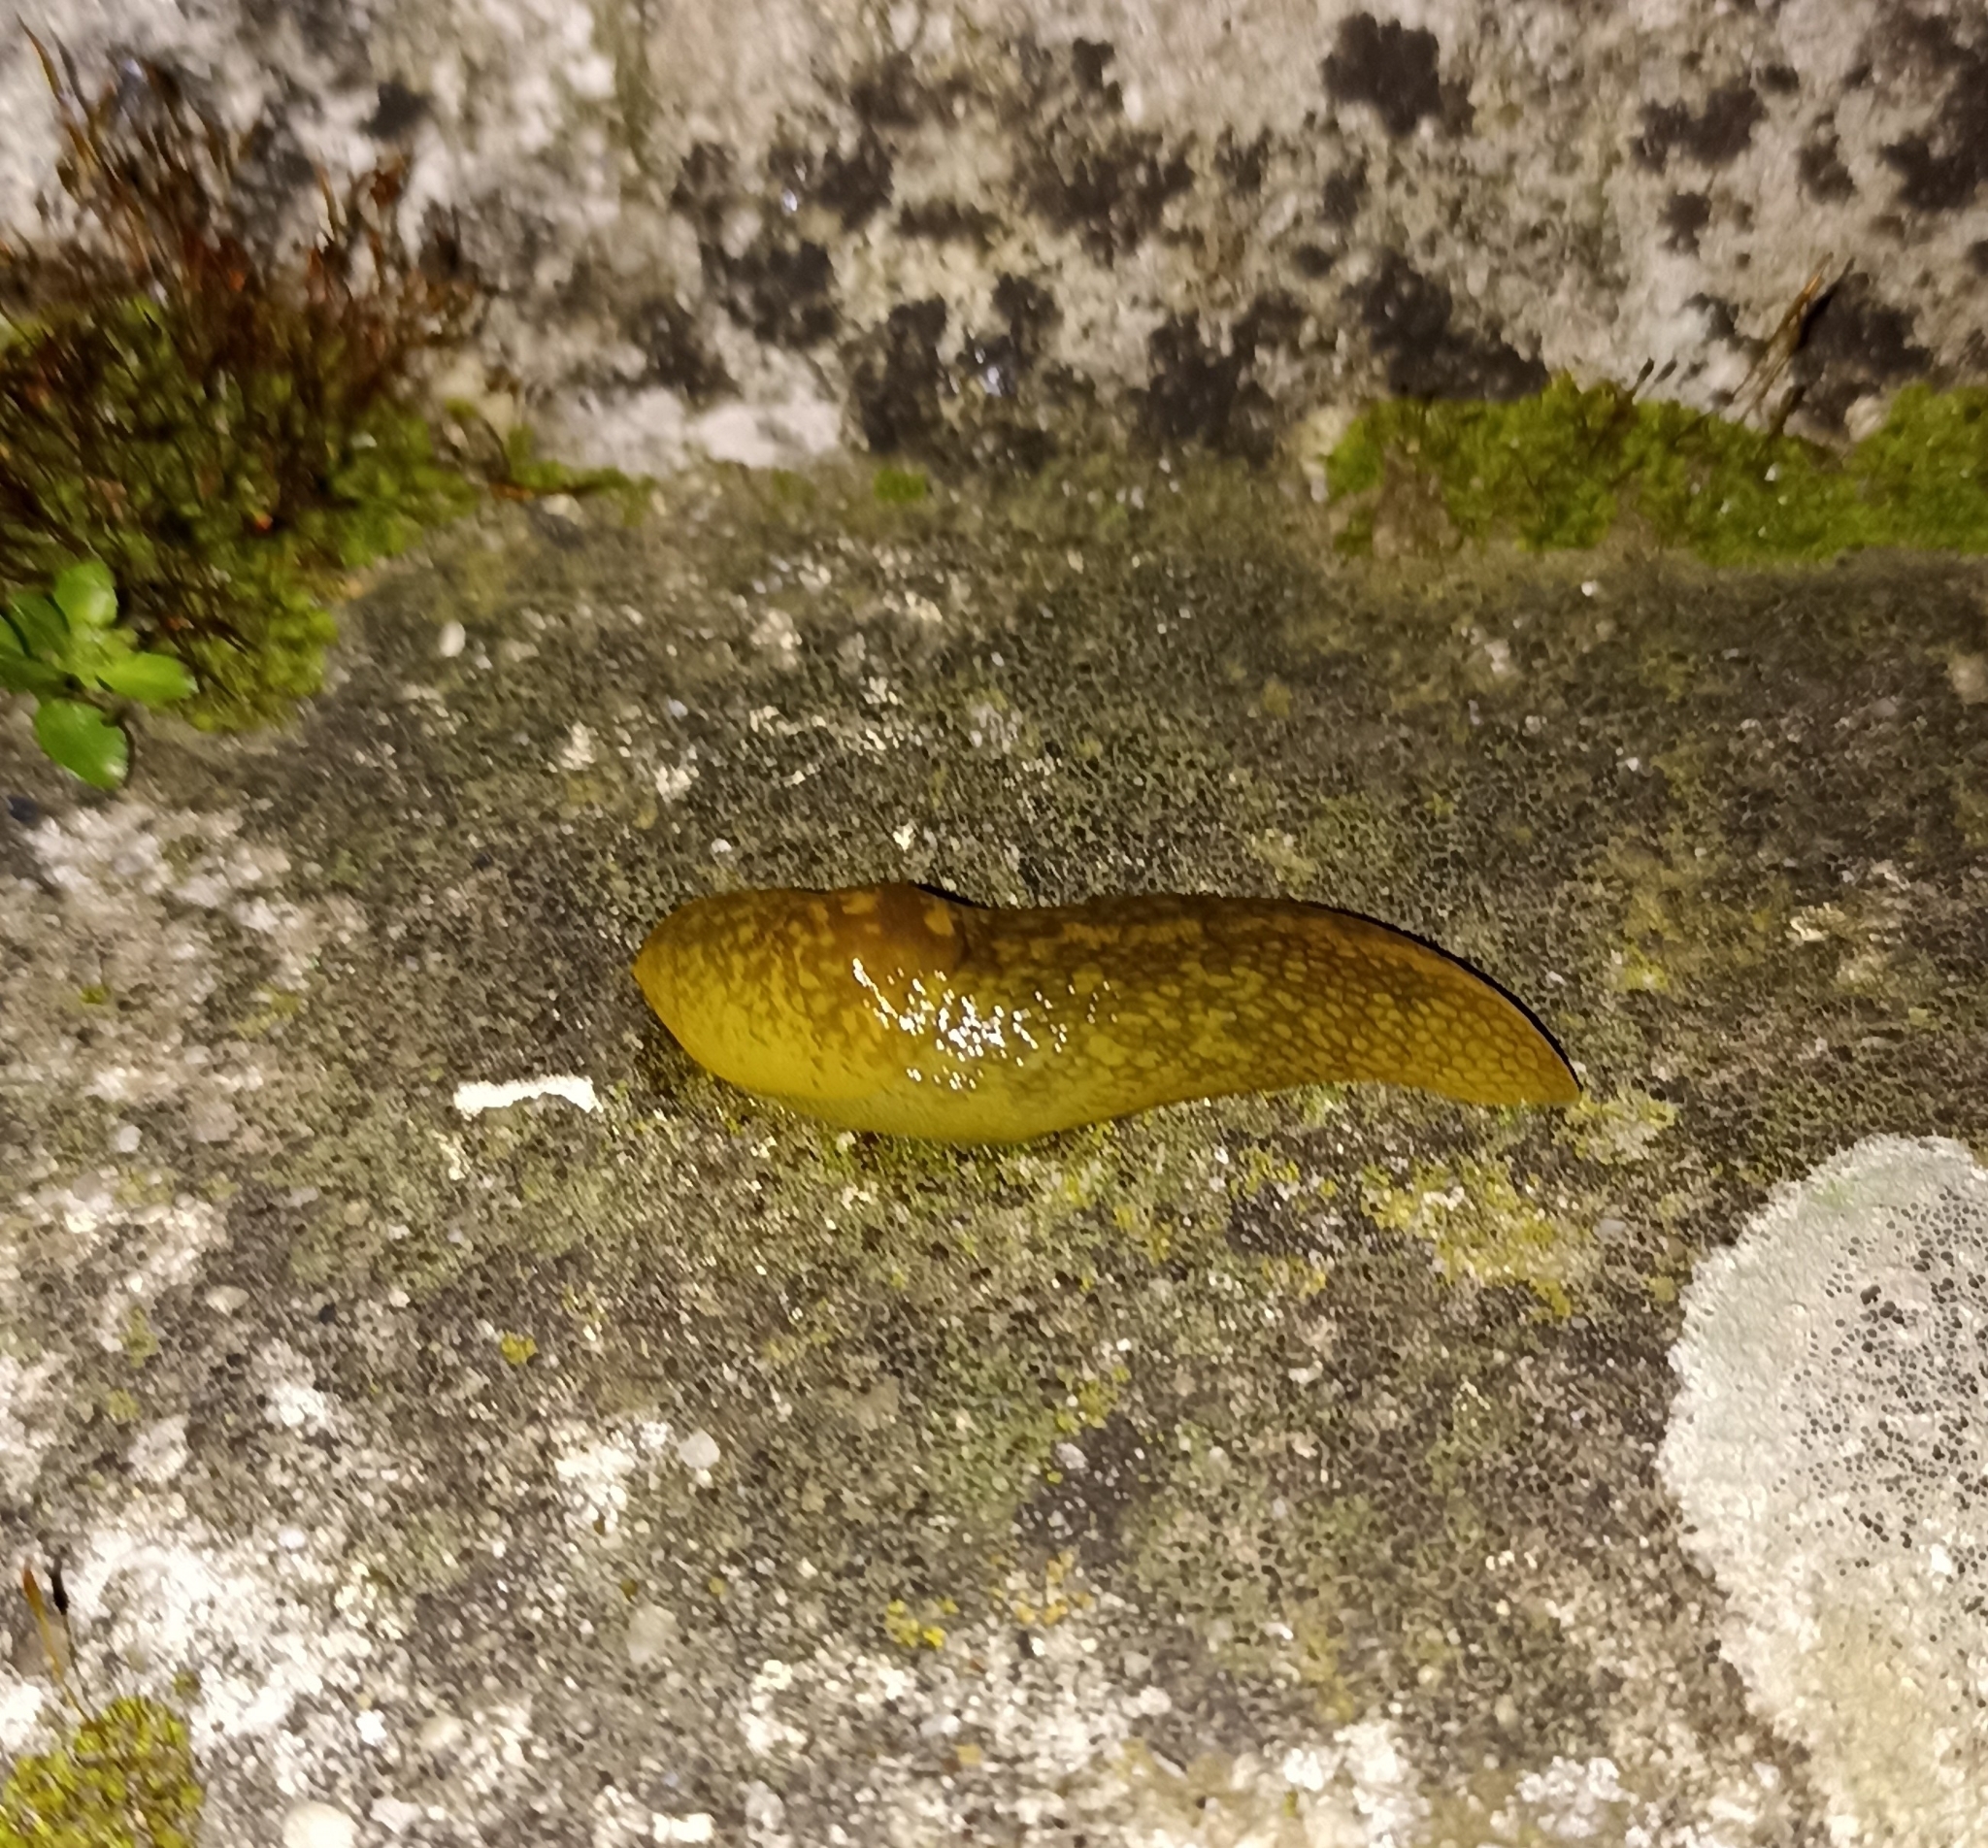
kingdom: Animalia
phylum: Mollusca
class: Gastropoda
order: Stylommatophora
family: Limacidae
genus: Limacus
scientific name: Limacus flavus
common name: Yellow gardenslug
